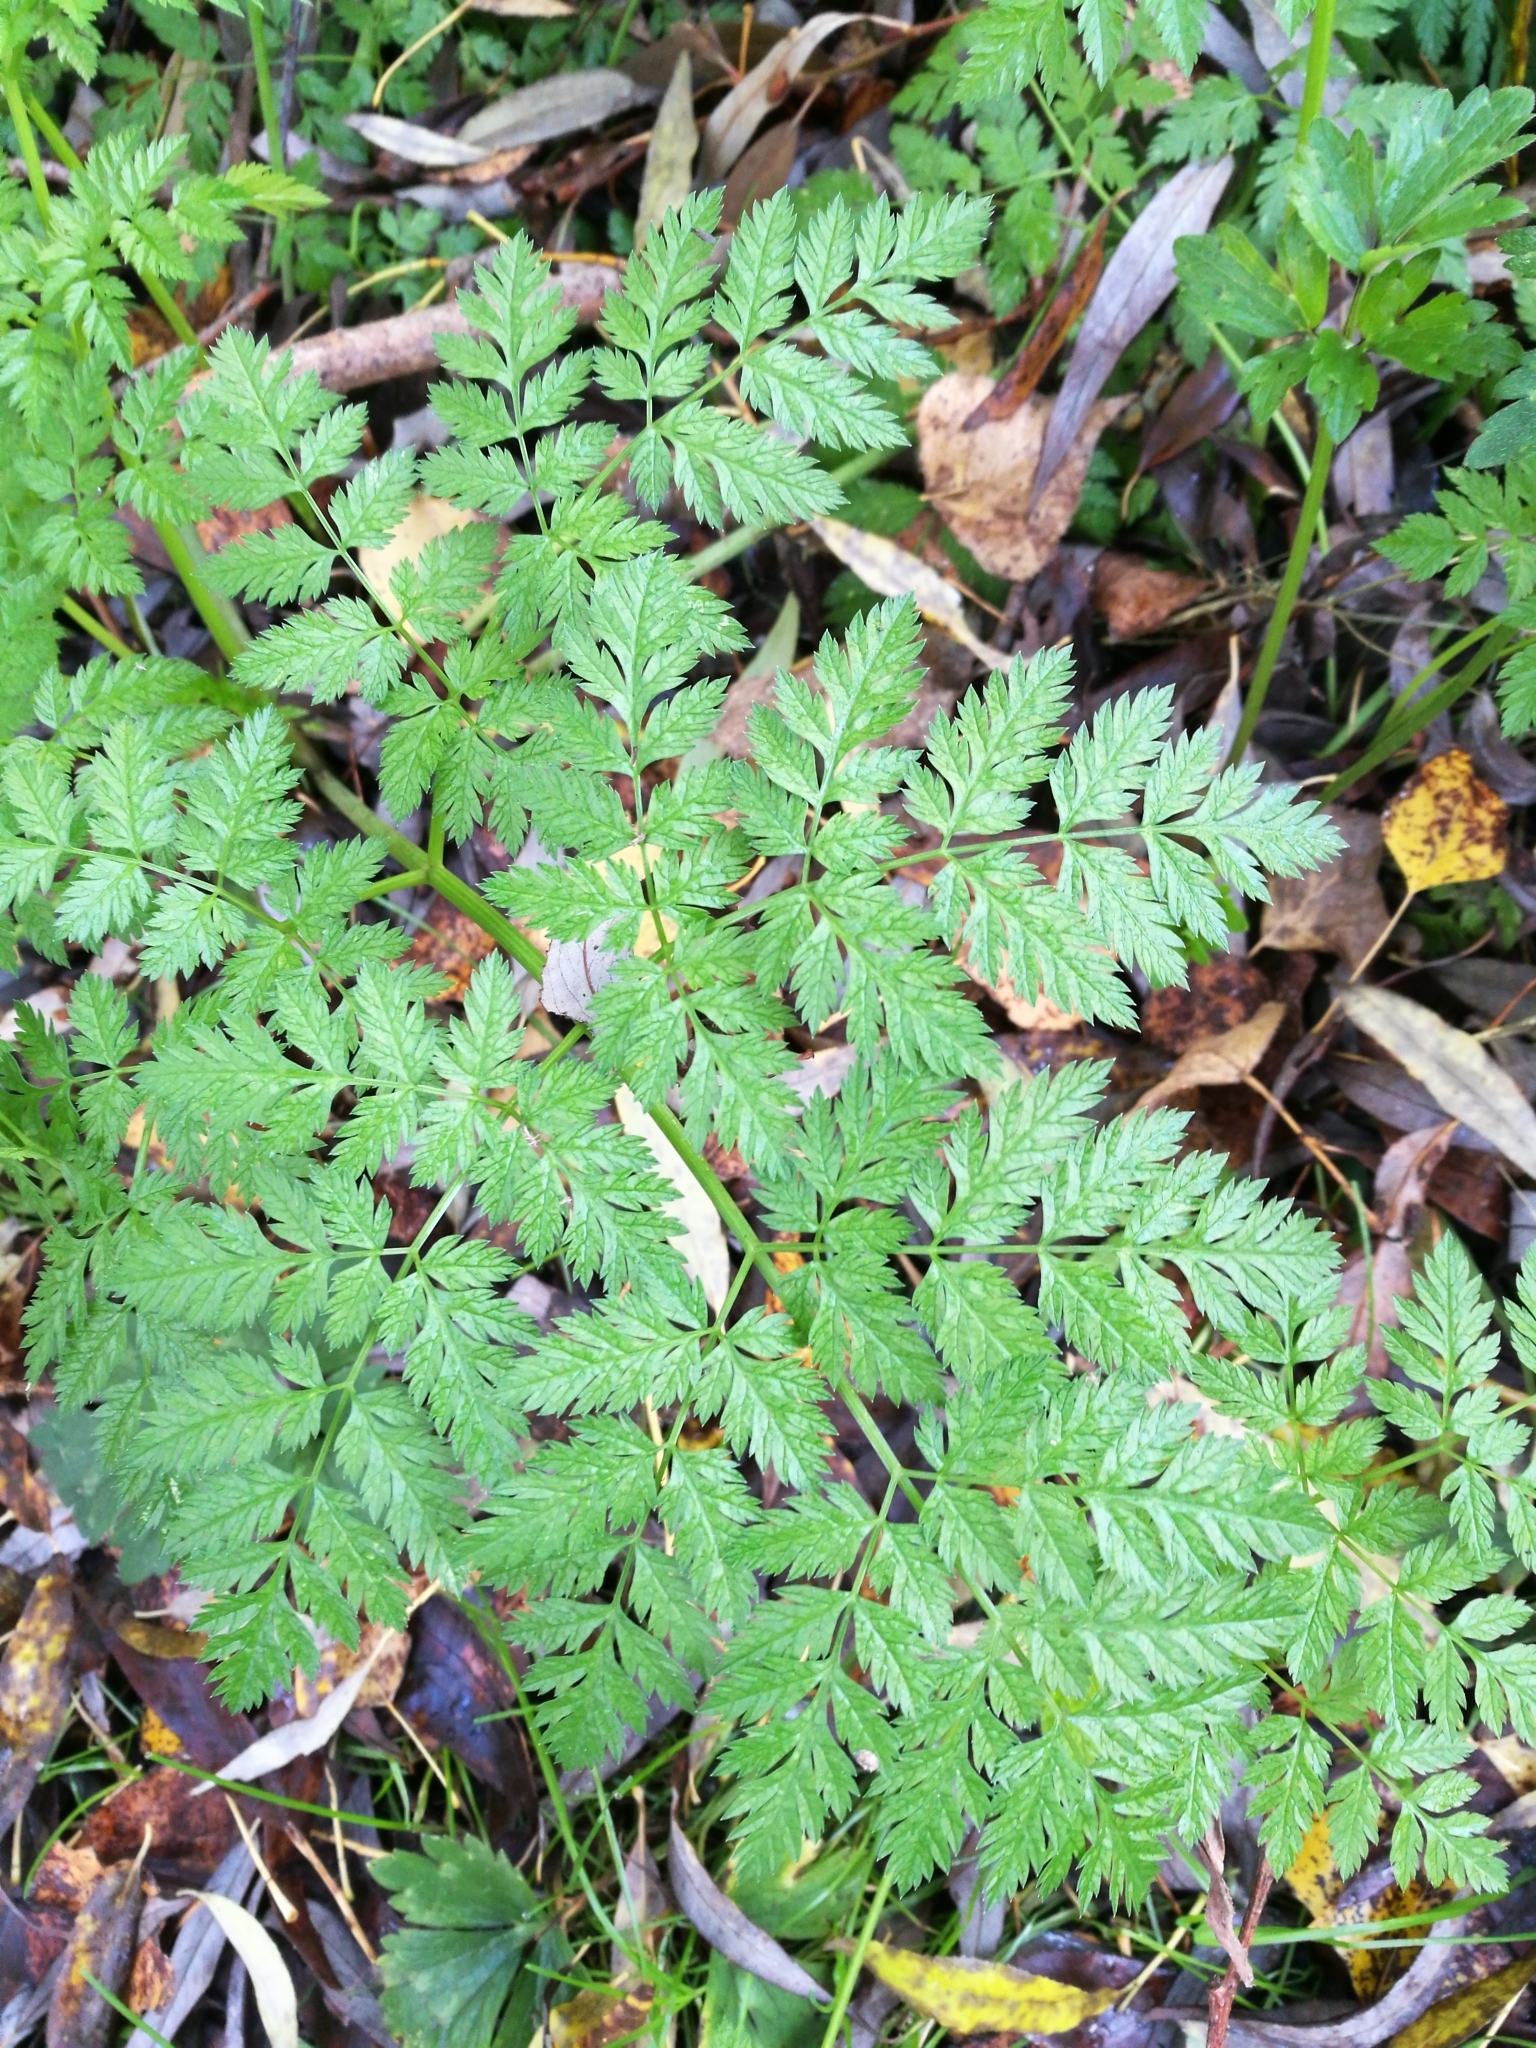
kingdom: Plantae
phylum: Tracheophyta
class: Magnoliopsida
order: Apiales
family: Apiaceae
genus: Conium
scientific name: Conium maculatum
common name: Hemlock
